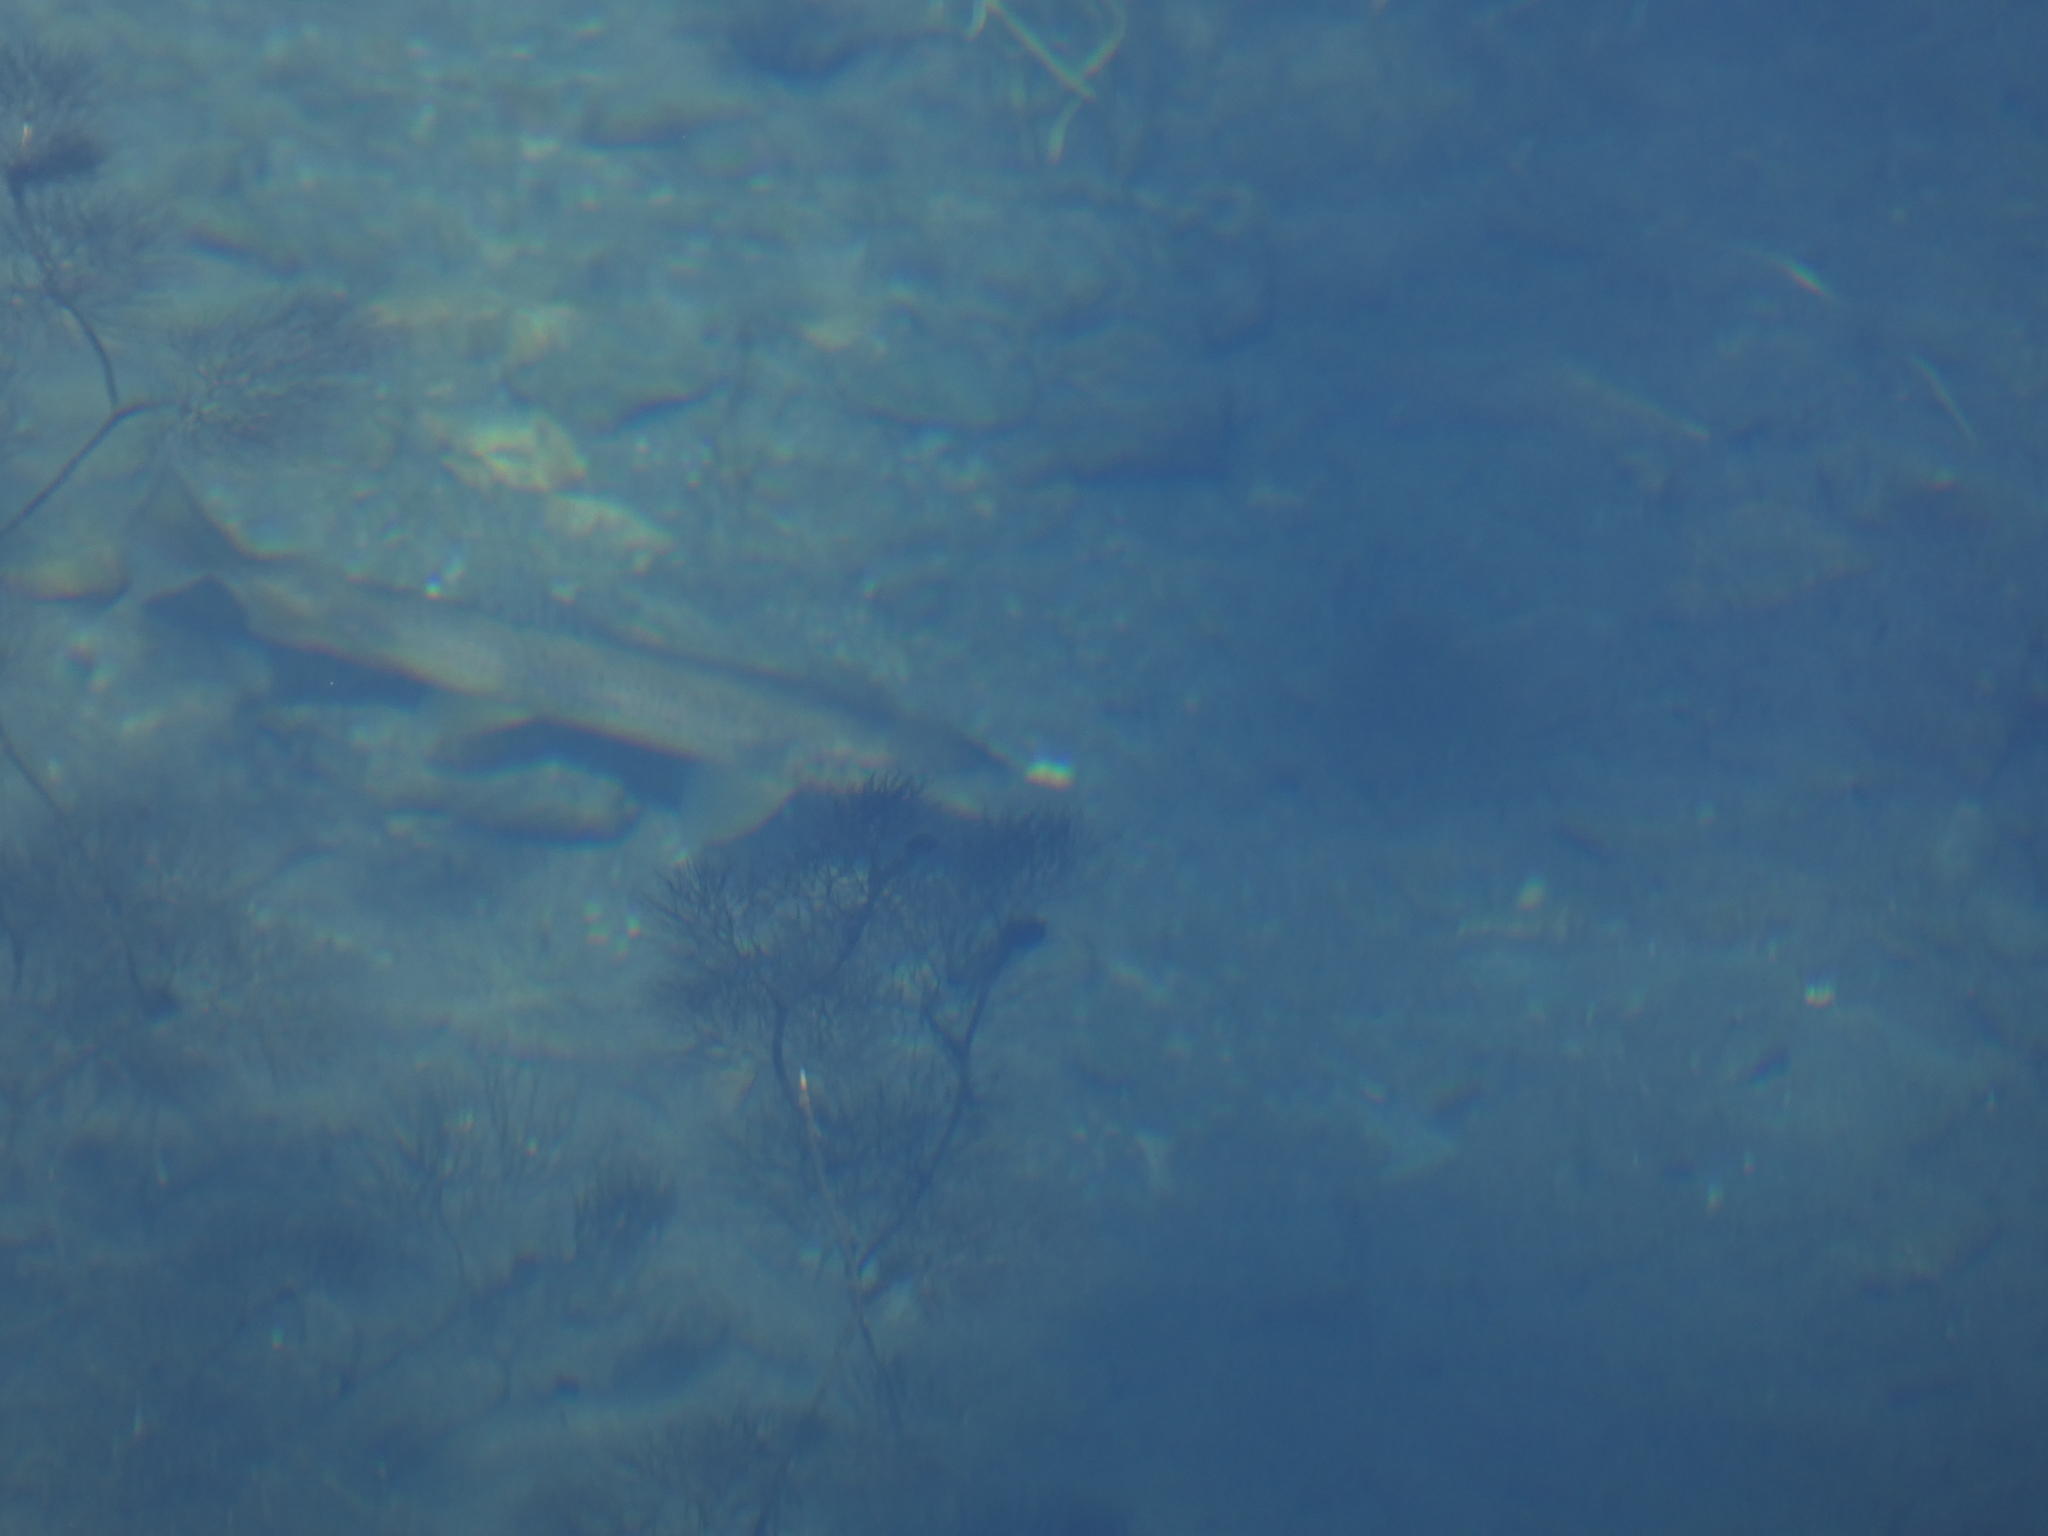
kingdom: Animalia
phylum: Chordata
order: Salmoniformes
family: Salmonidae
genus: Salmo
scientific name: Salmo trutta
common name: Brown trout
